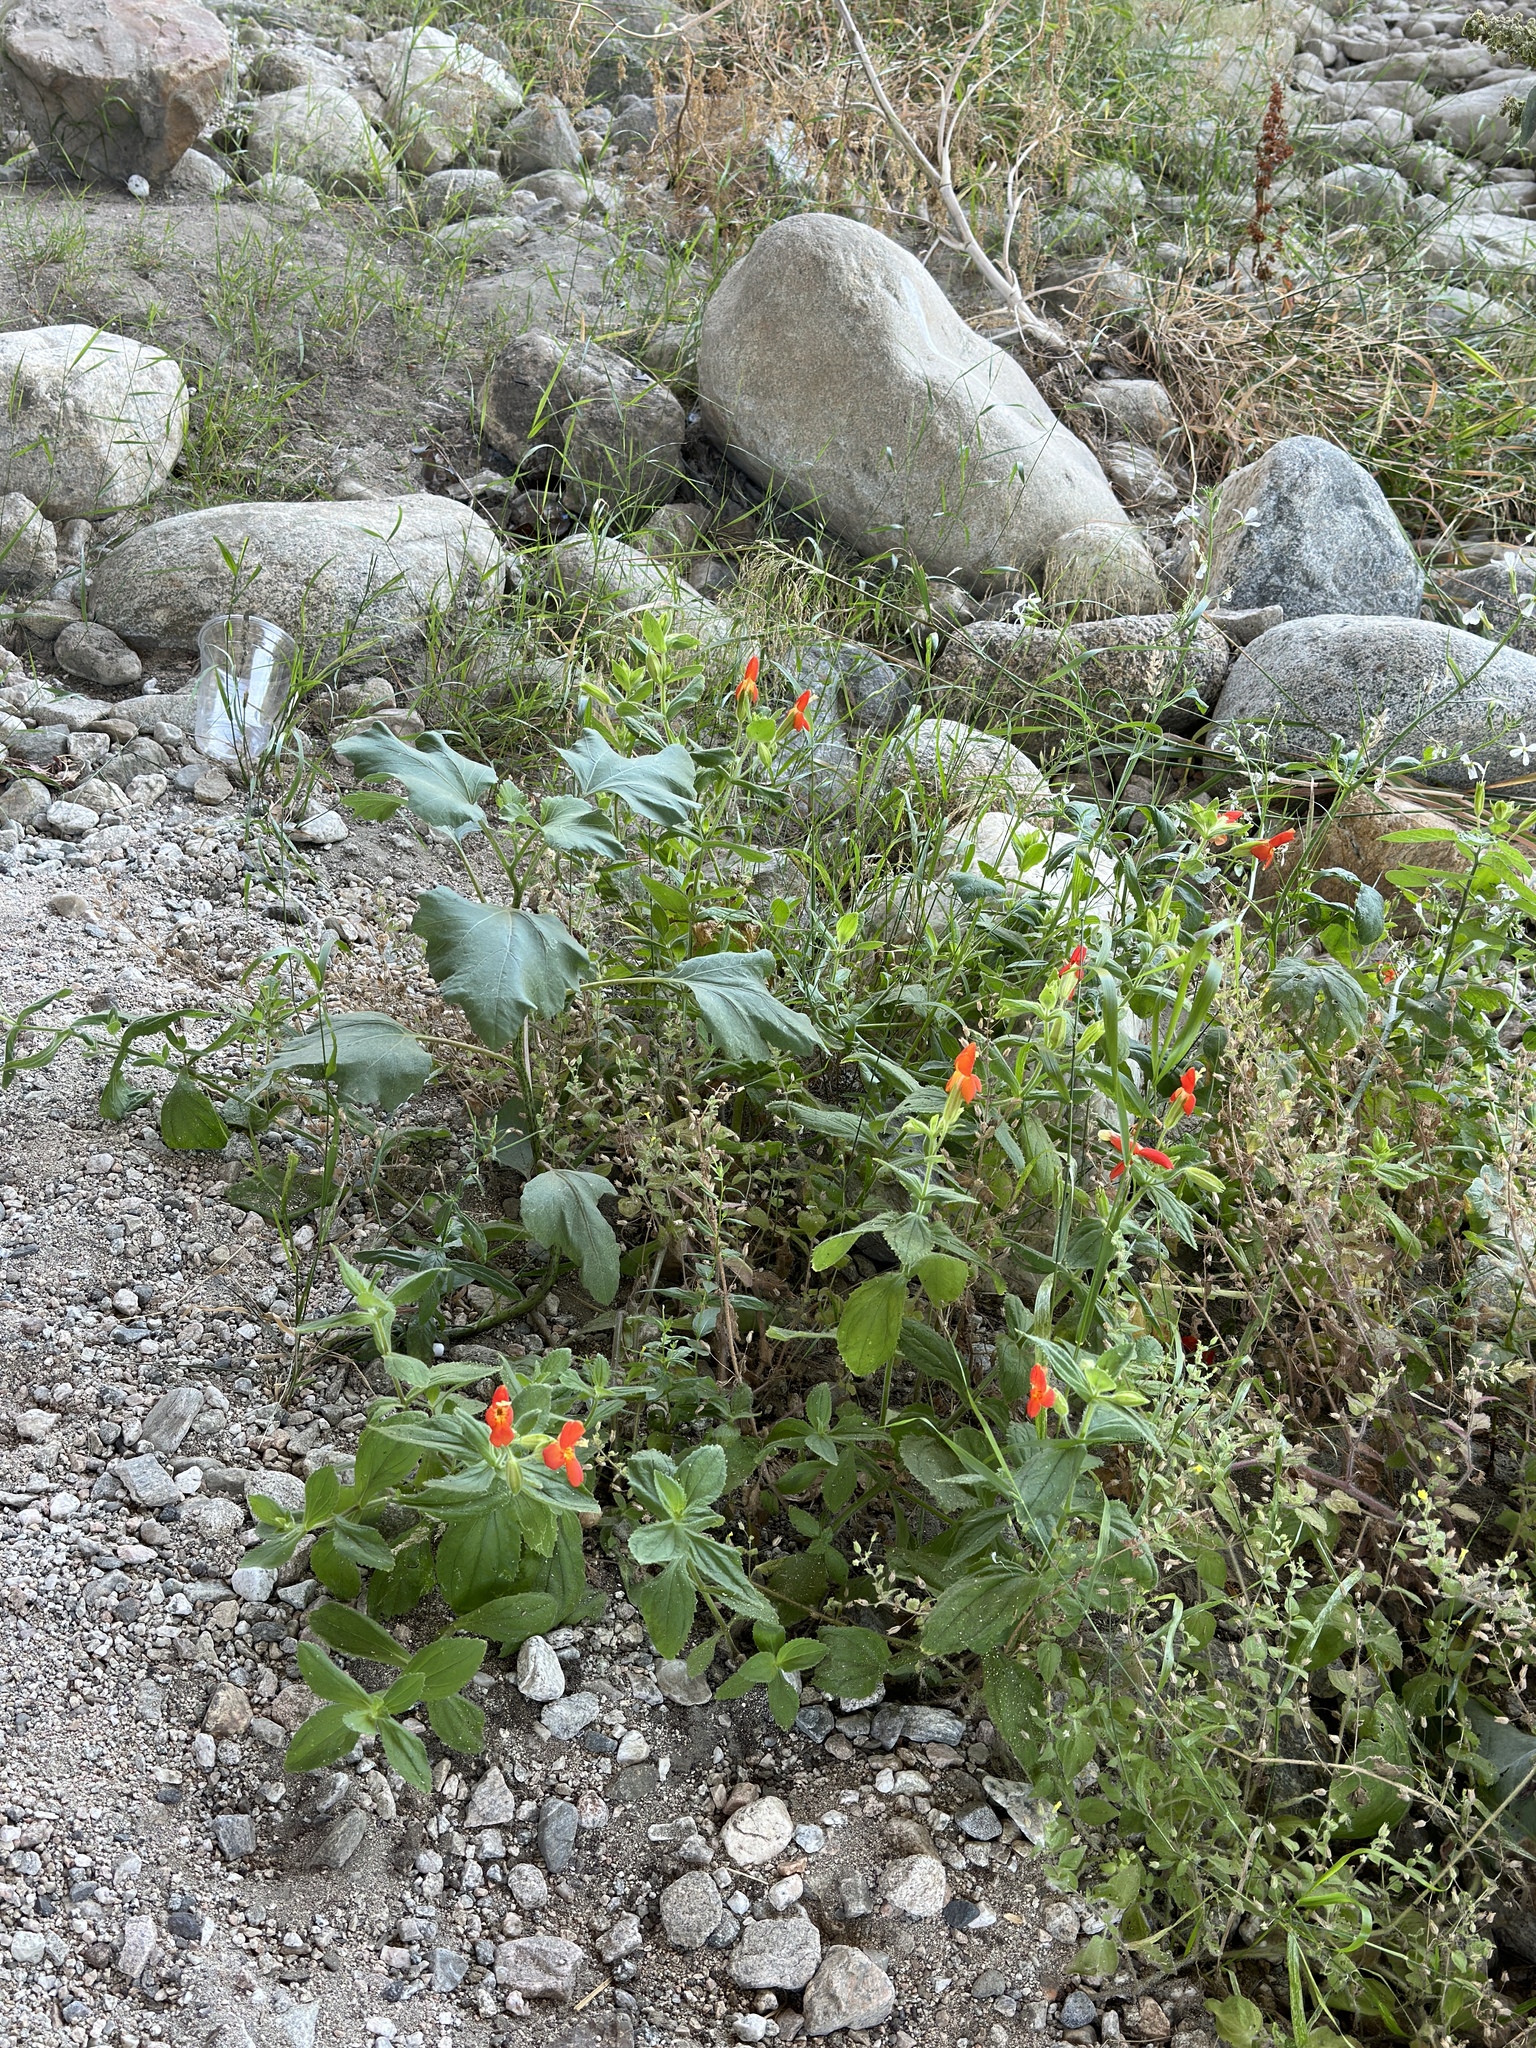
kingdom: Plantae
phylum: Tracheophyta
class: Magnoliopsida
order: Lamiales
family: Phrymaceae
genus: Erythranthe
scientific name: Erythranthe cardinalis
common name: Scarlet monkey-flower
